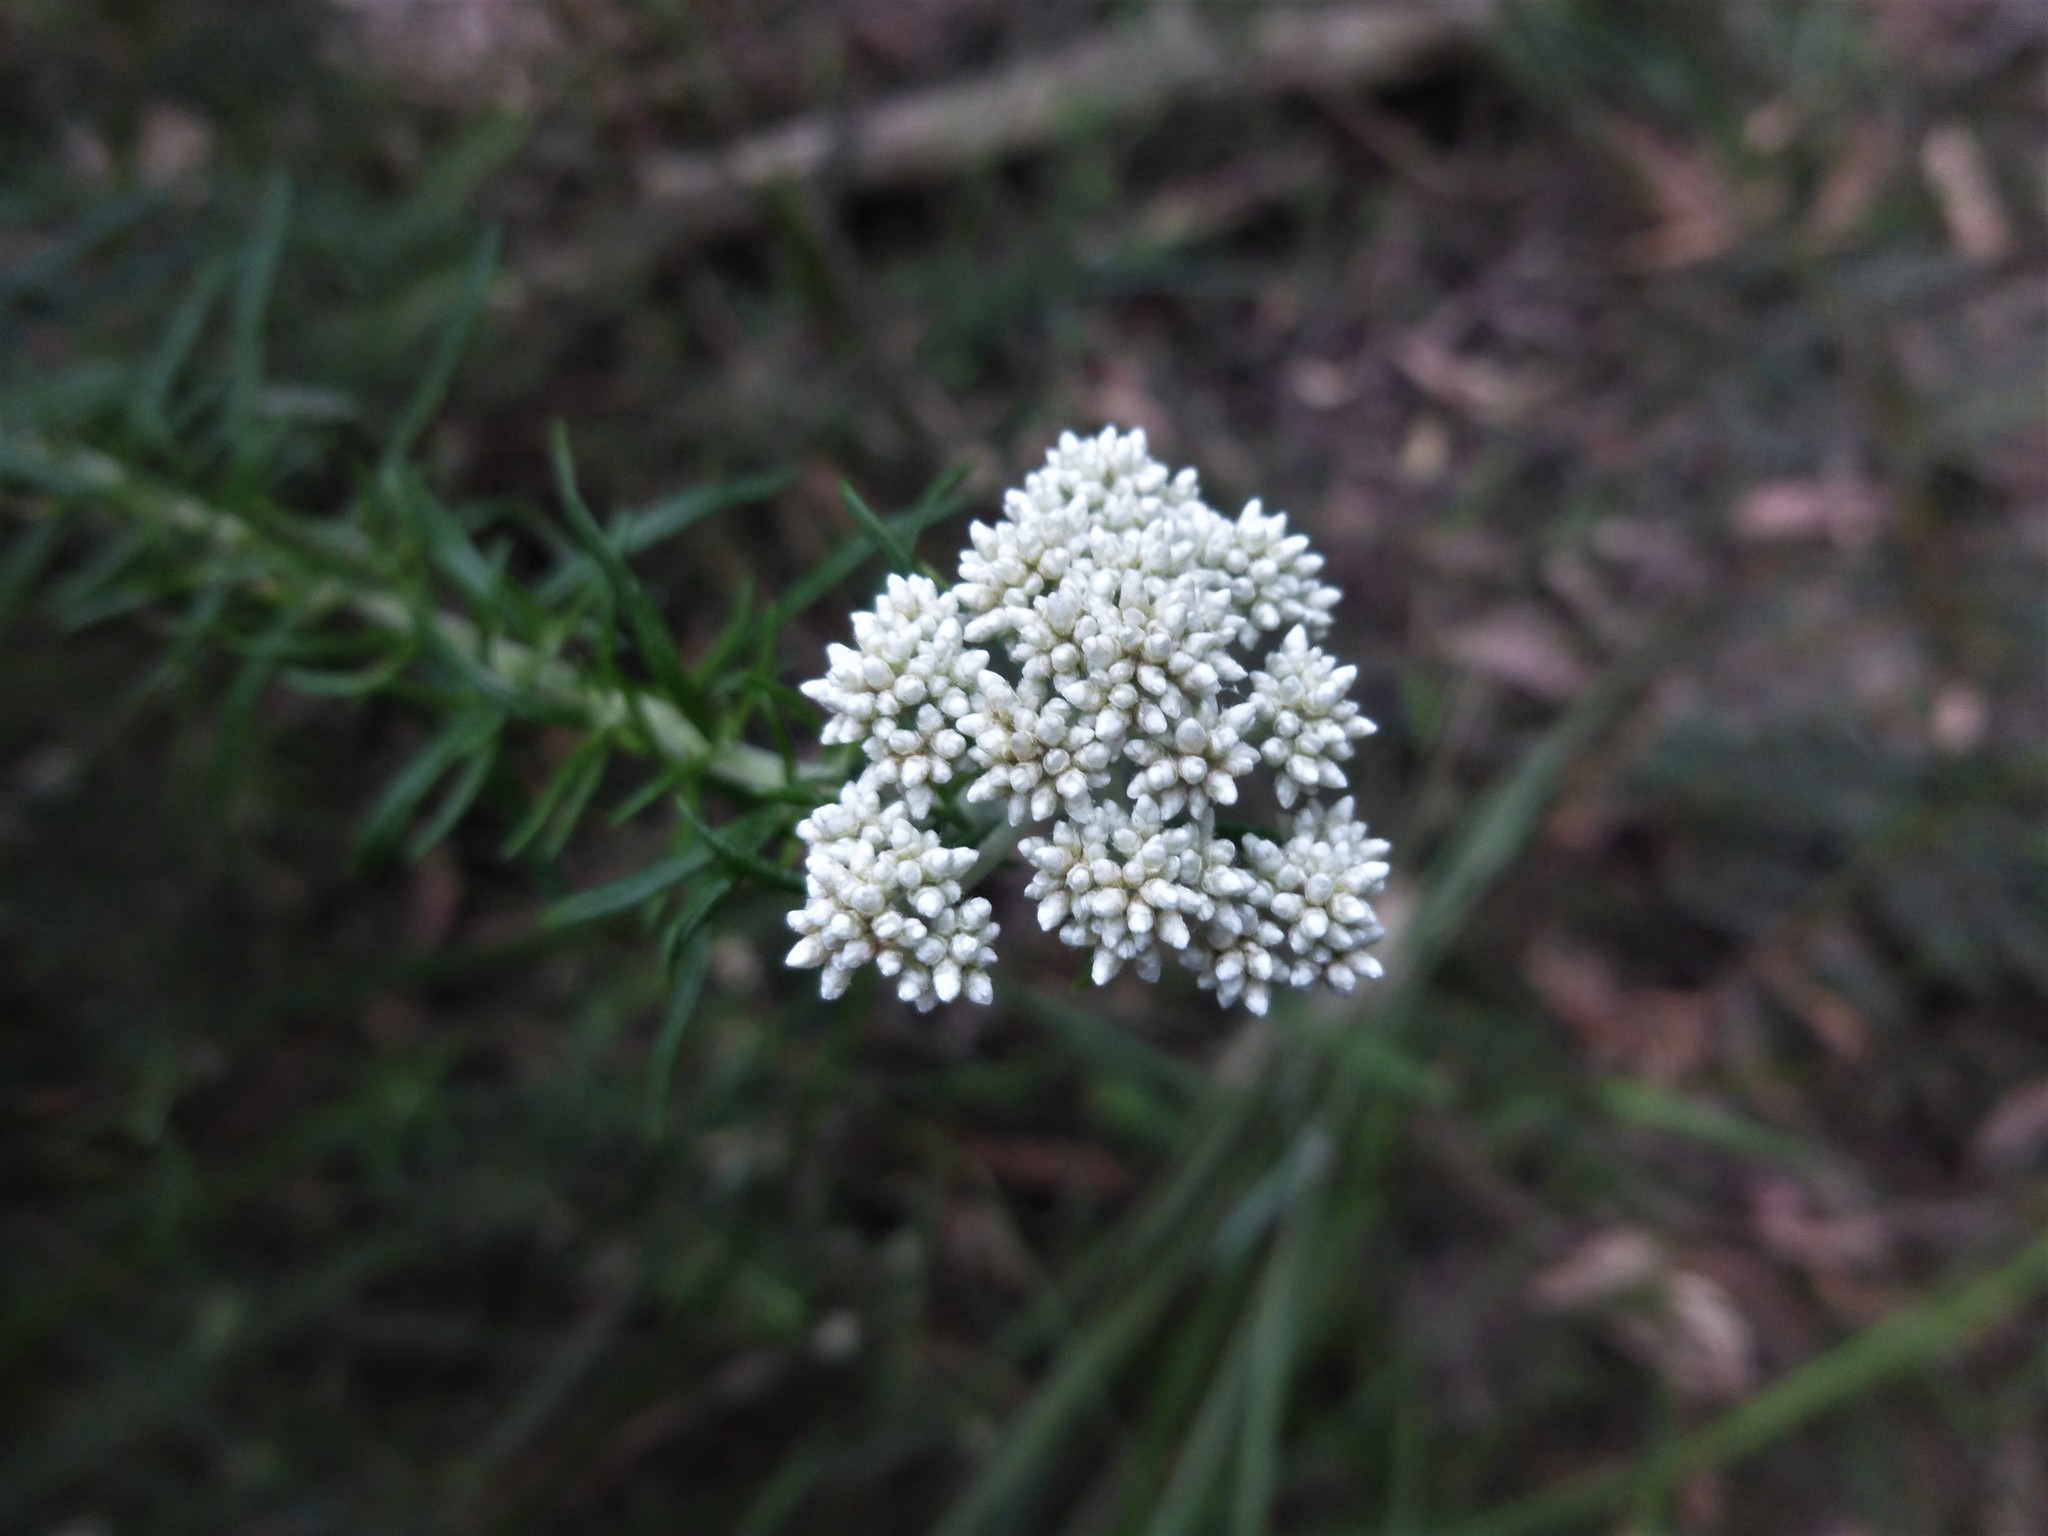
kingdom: Plantae
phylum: Tracheophyta
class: Magnoliopsida
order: Asterales
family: Asteraceae
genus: Cassinia
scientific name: Cassinia aculeata
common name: Australian tauhinu
